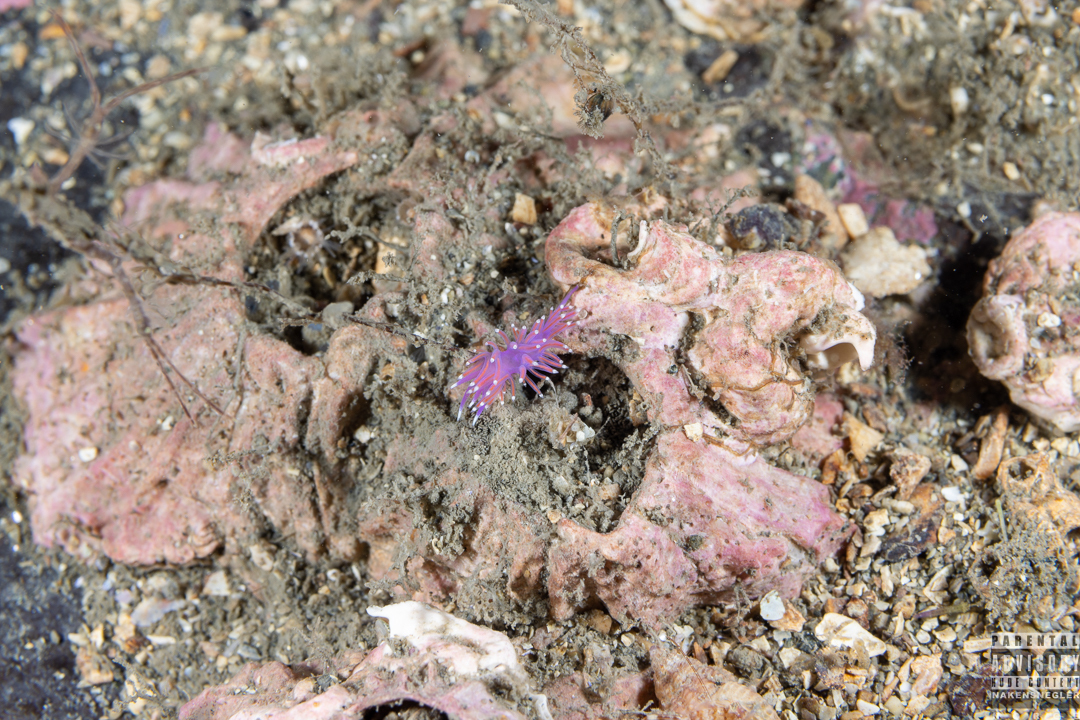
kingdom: Animalia
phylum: Mollusca
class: Gastropoda
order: Nudibranchia
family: Flabellinidae
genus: Edmundsella
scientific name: Edmundsella pedata
